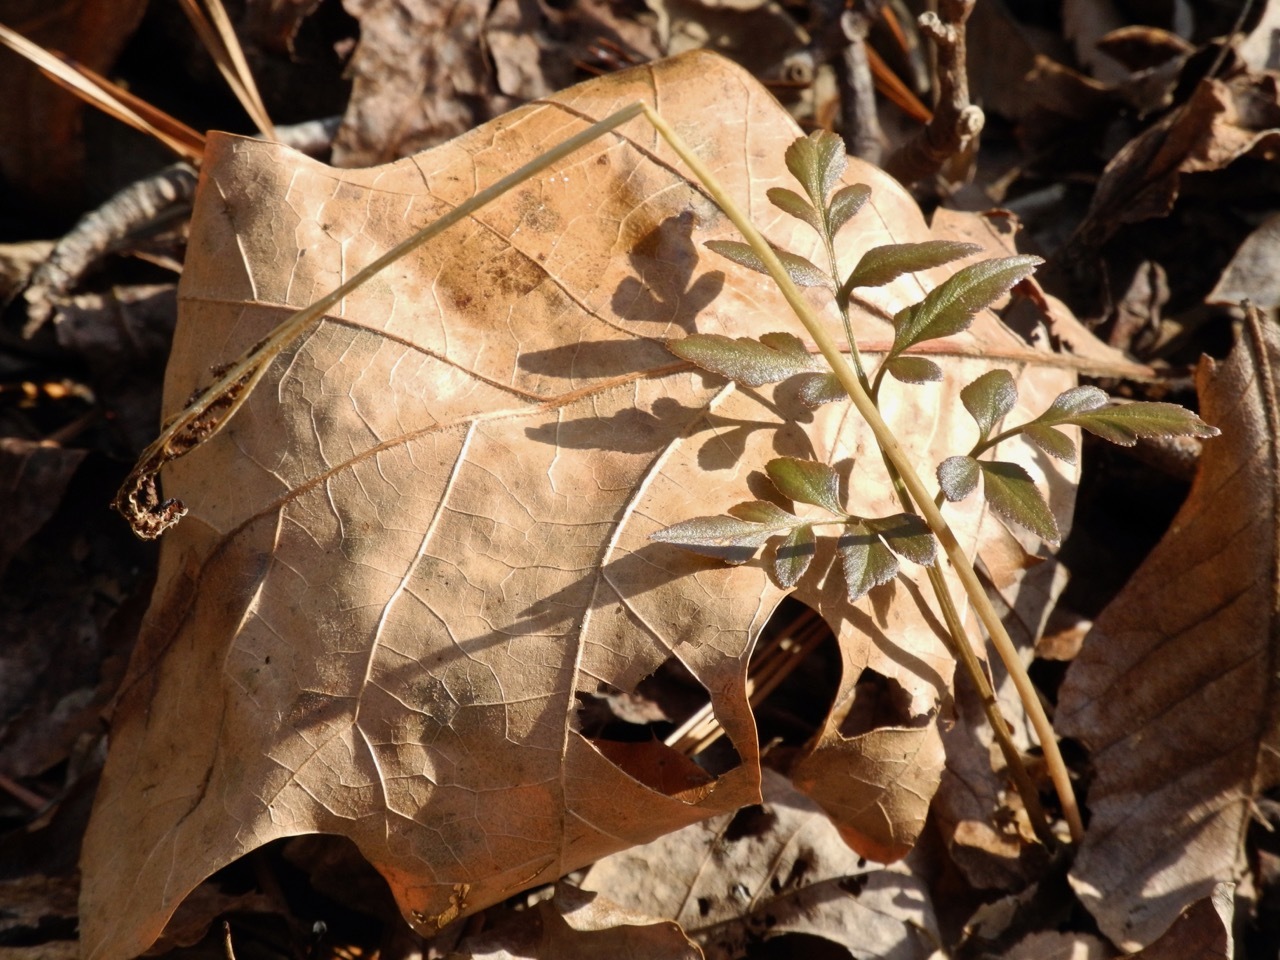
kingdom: Plantae
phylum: Tracheophyta
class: Polypodiopsida
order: Ophioglossales
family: Ophioglossaceae
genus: Sceptridium
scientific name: Sceptridium biternatum
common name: Sparse-lobed grapefern
